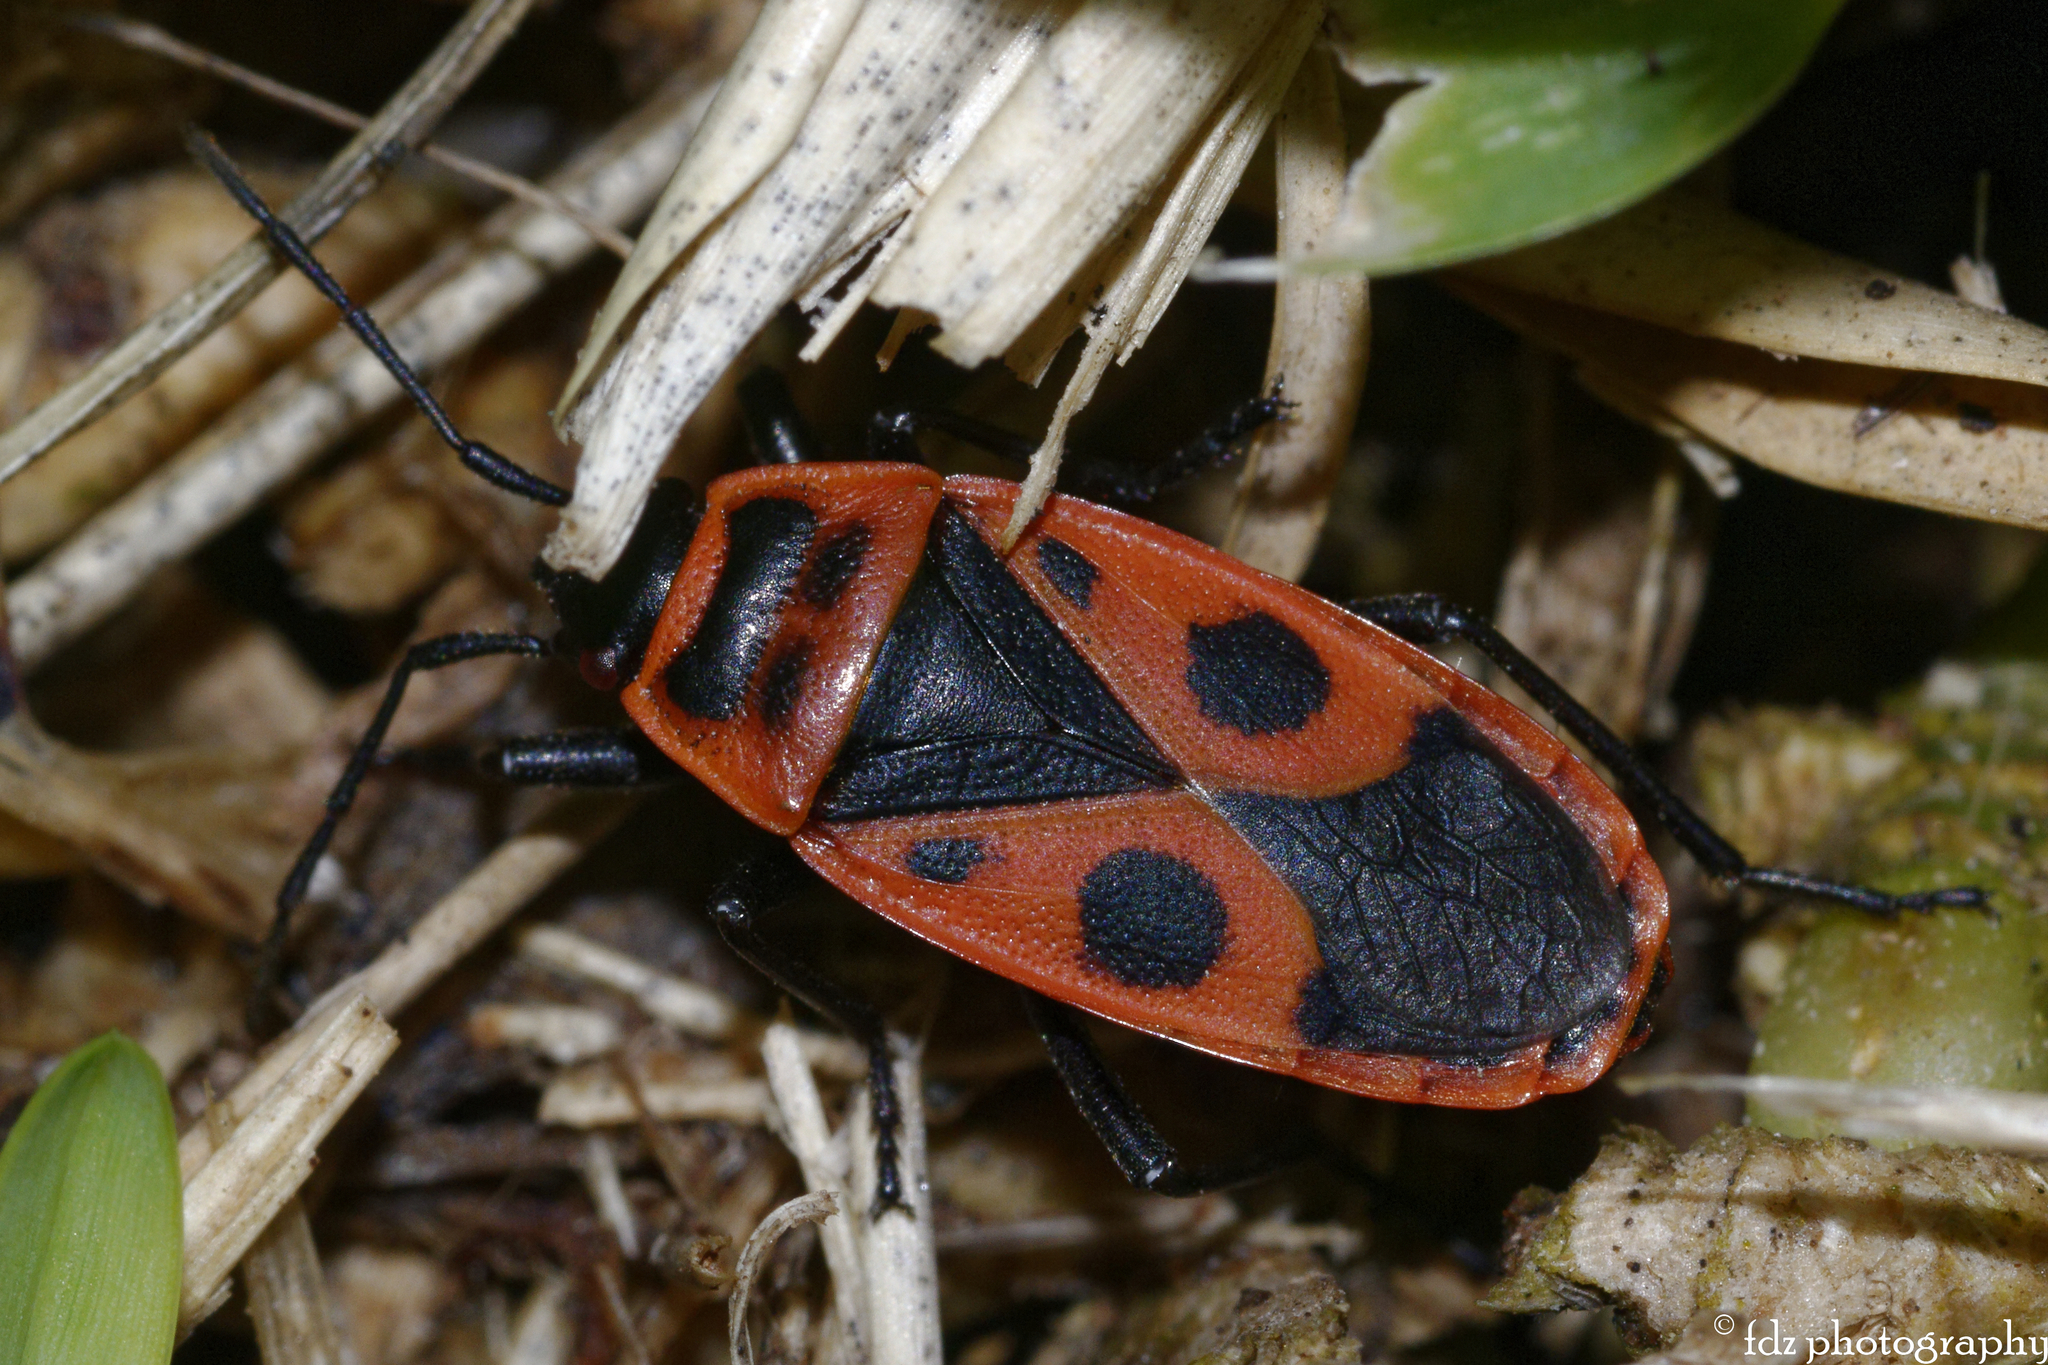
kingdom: Animalia
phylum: Arthropoda
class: Insecta
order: Hemiptera
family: Pyrrhocoridae
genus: Pyrrhocoris
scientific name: Pyrrhocoris apterus
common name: Firebug
